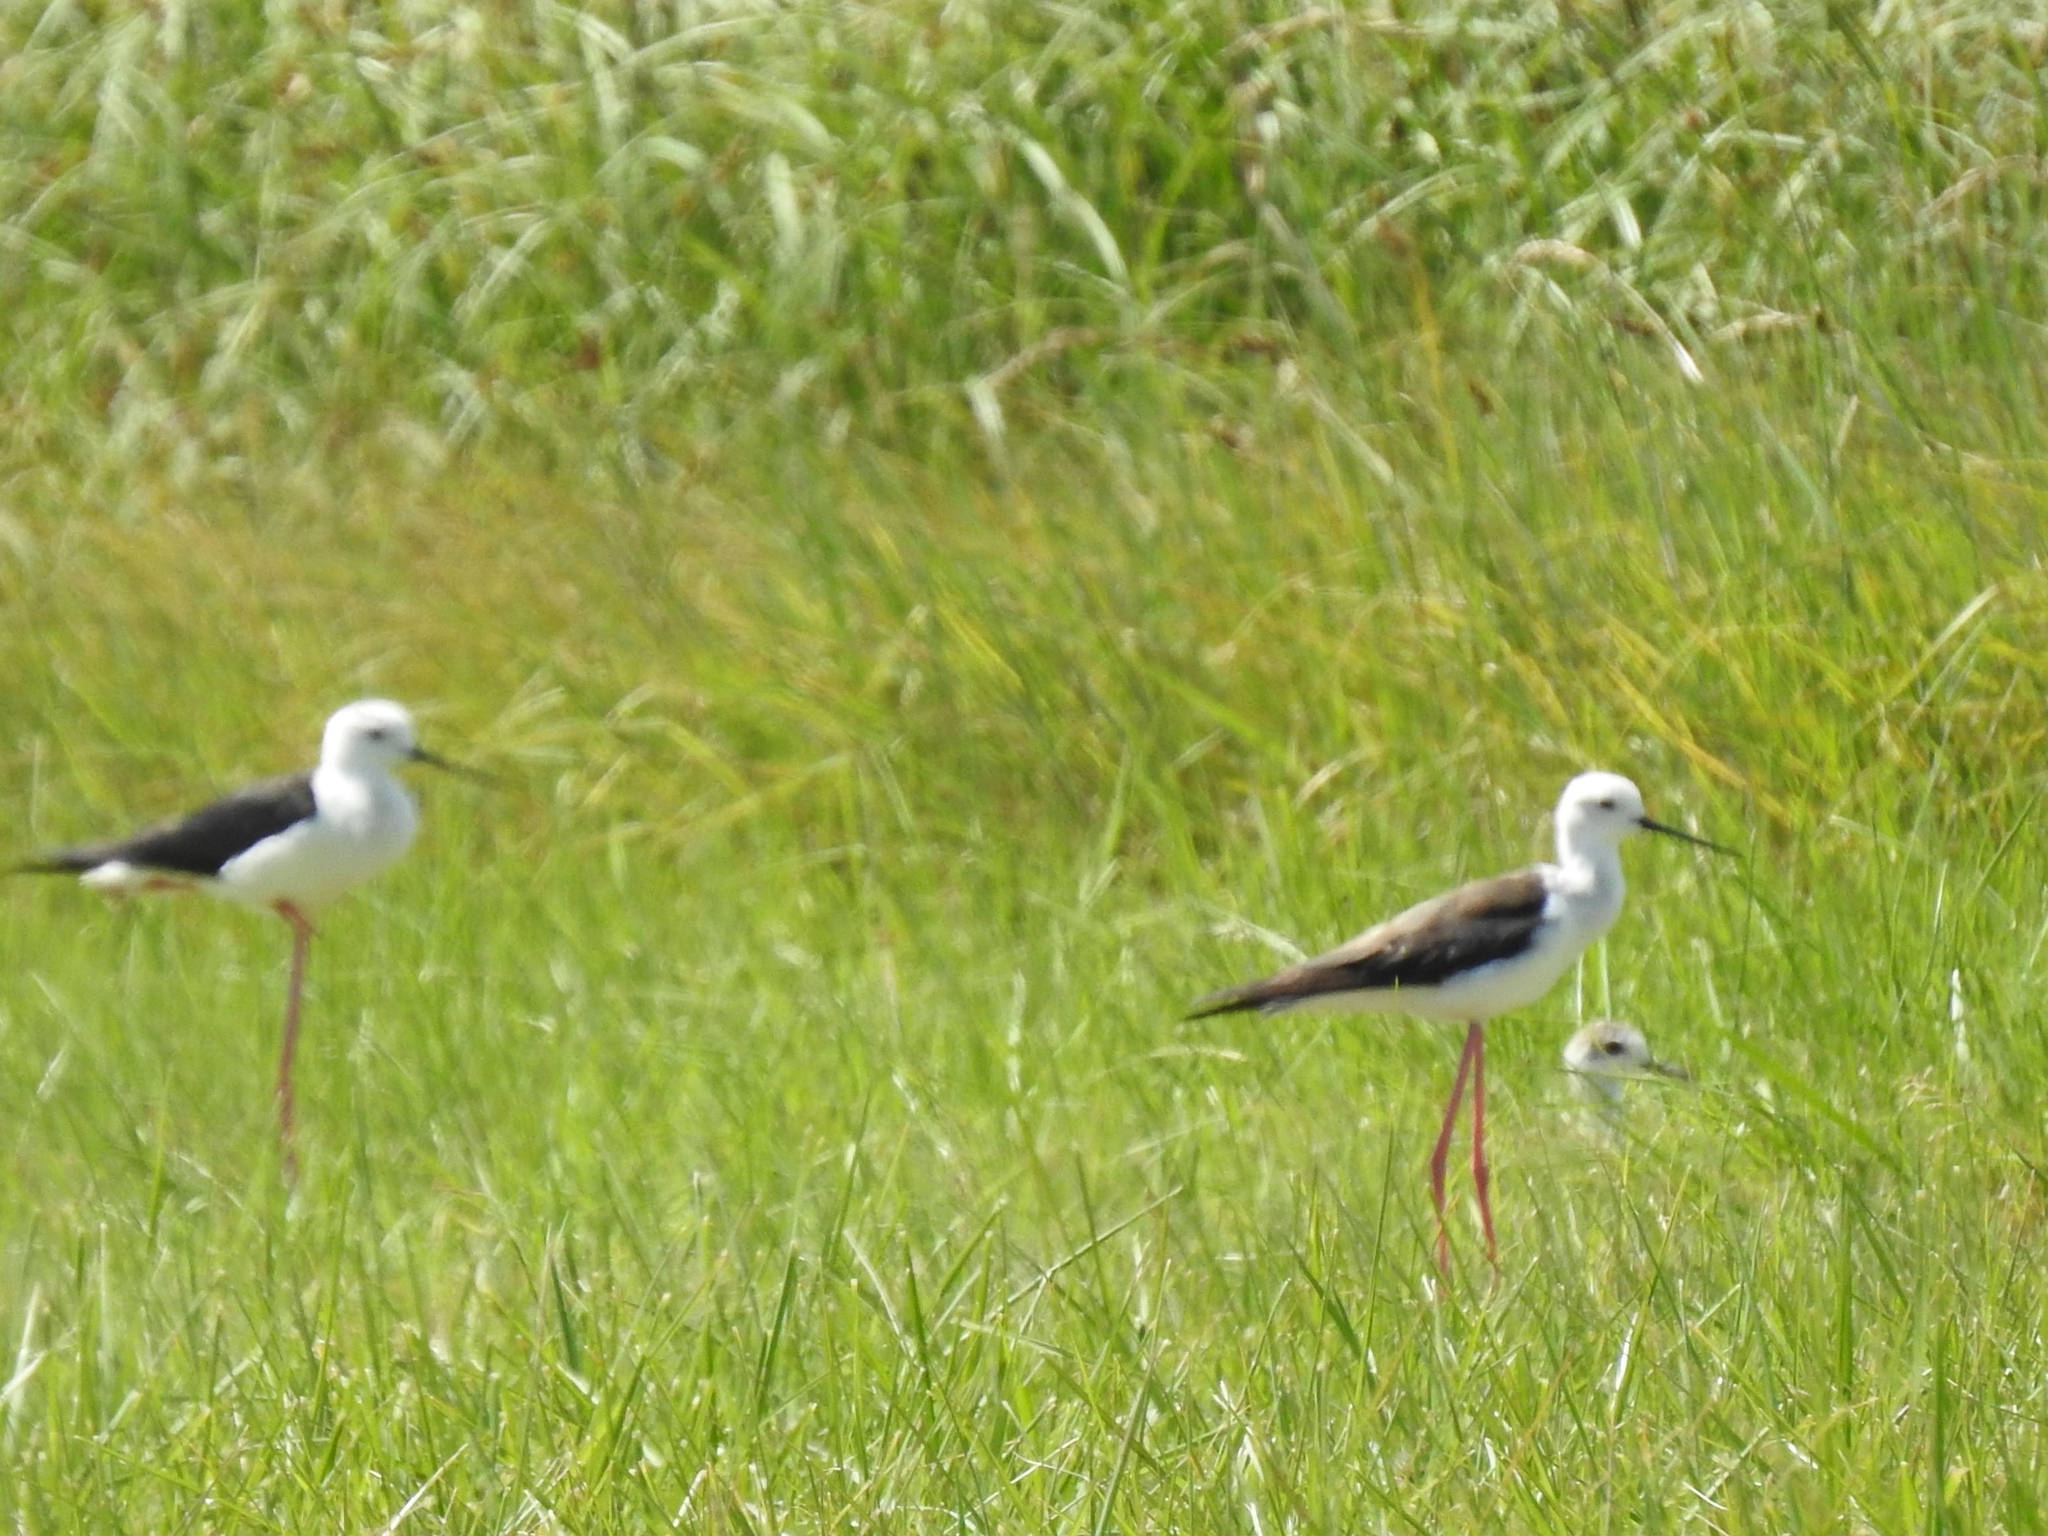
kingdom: Animalia
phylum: Chordata
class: Aves
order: Charadriiformes
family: Recurvirostridae
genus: Himantopus
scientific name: Himantopus himantopus
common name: Black-winged stilt
